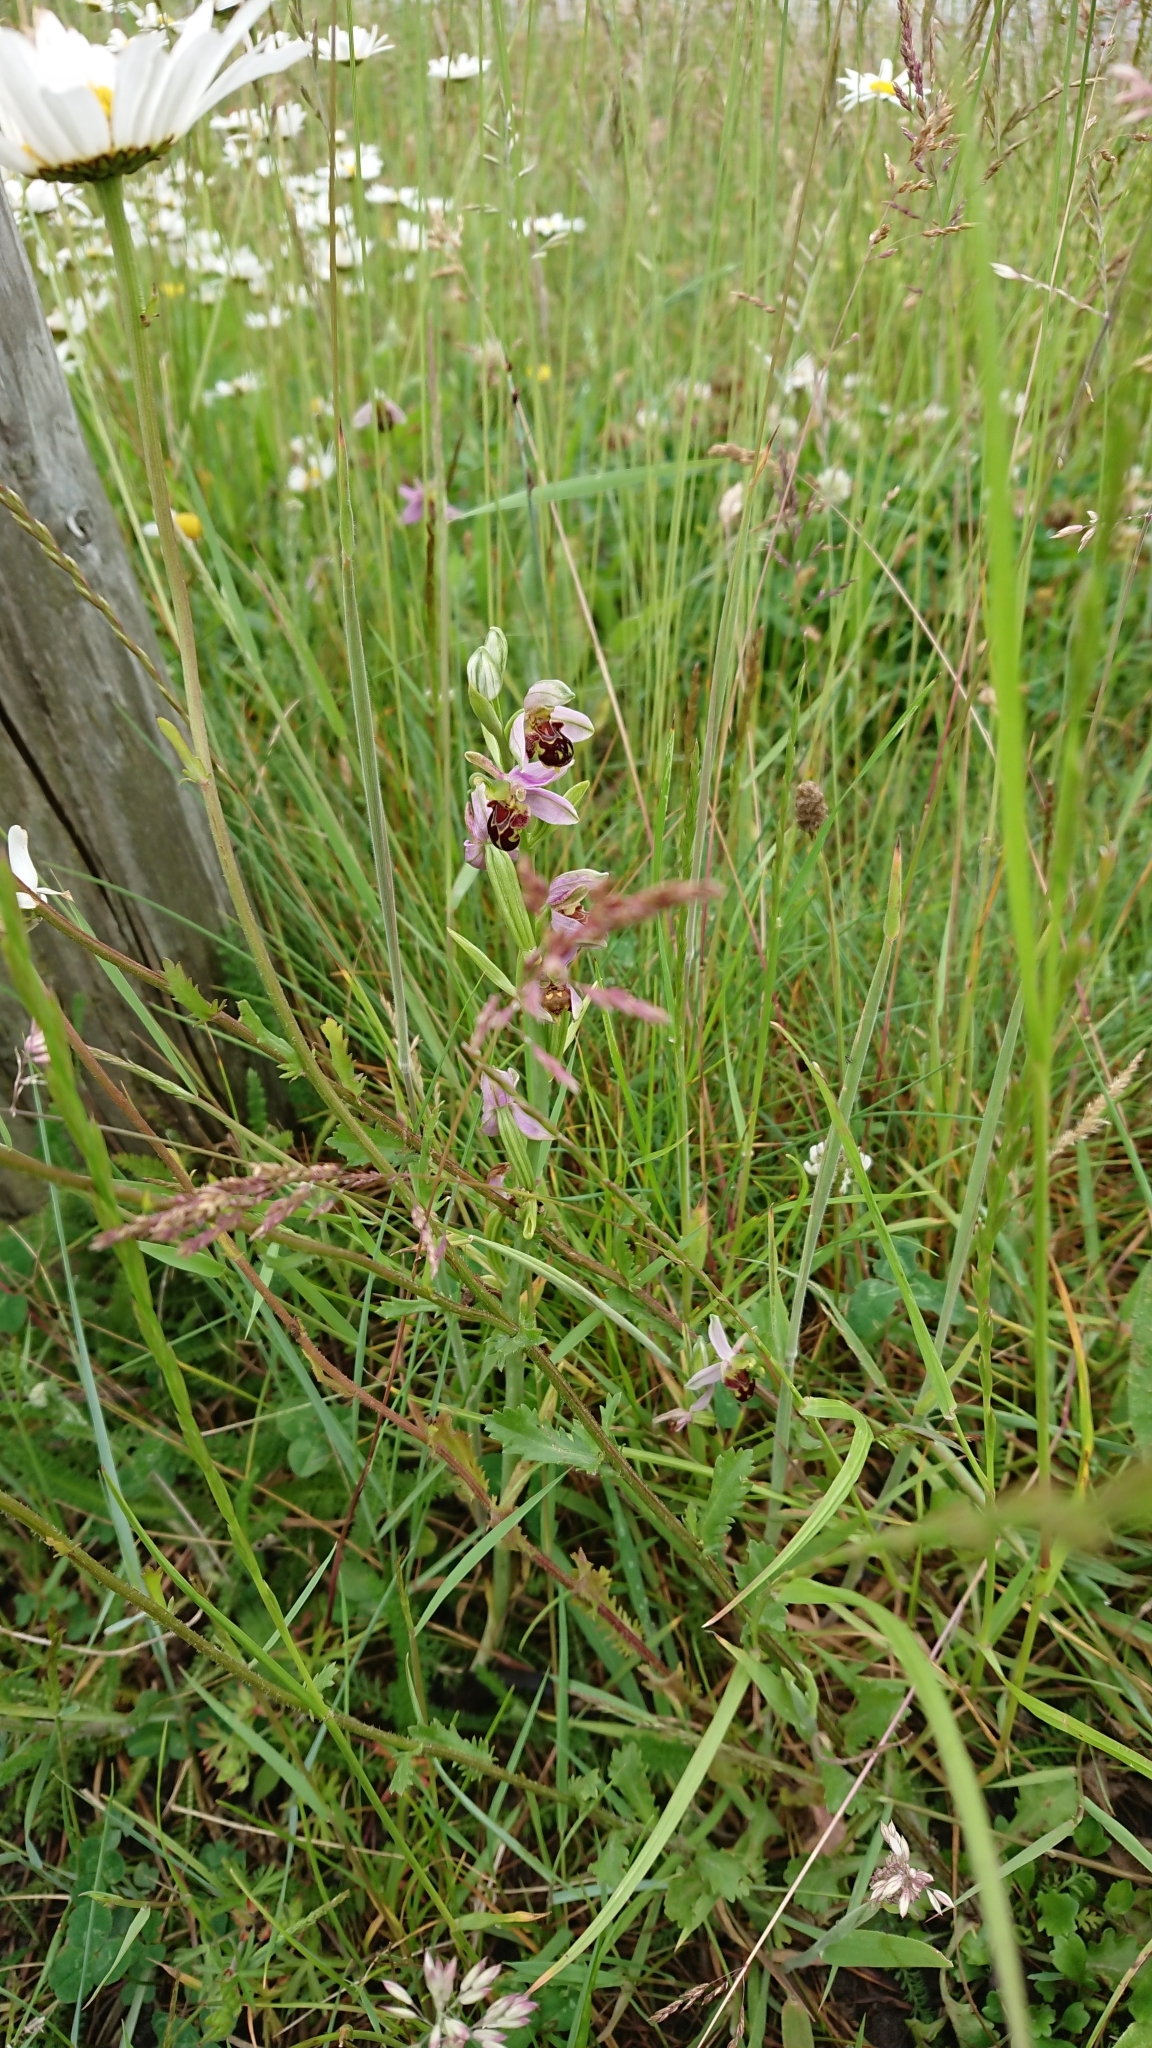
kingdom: Plantae
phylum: Tracheophyta
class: Liliopsida
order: Asparagales
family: Orchidaceae
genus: Ophrys
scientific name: Ophrys apifera
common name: Bee orchid
